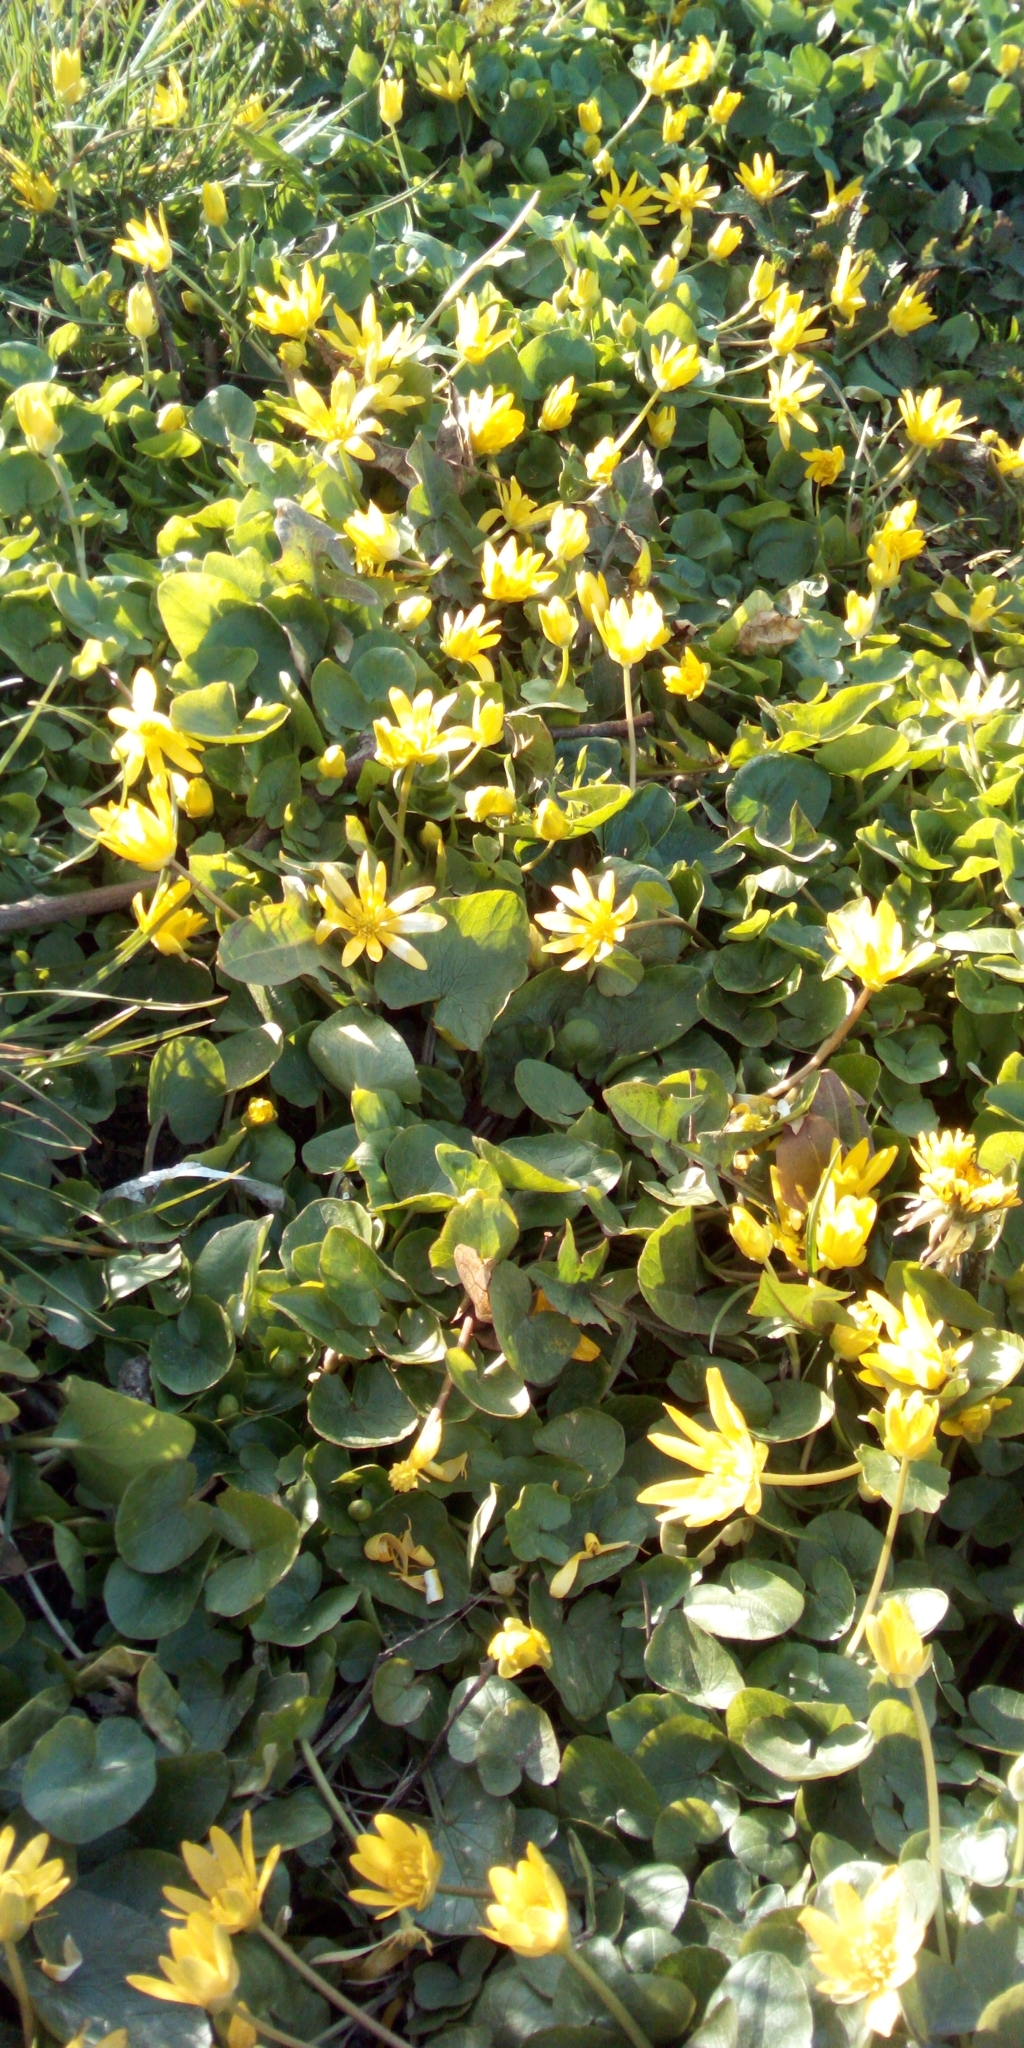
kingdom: Plantae
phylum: Tracheophyta
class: Magnoliopsida
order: Ranunculales
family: Ranunculaceae
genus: Ficaria
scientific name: Ficaria verna
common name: Lesser celandine
